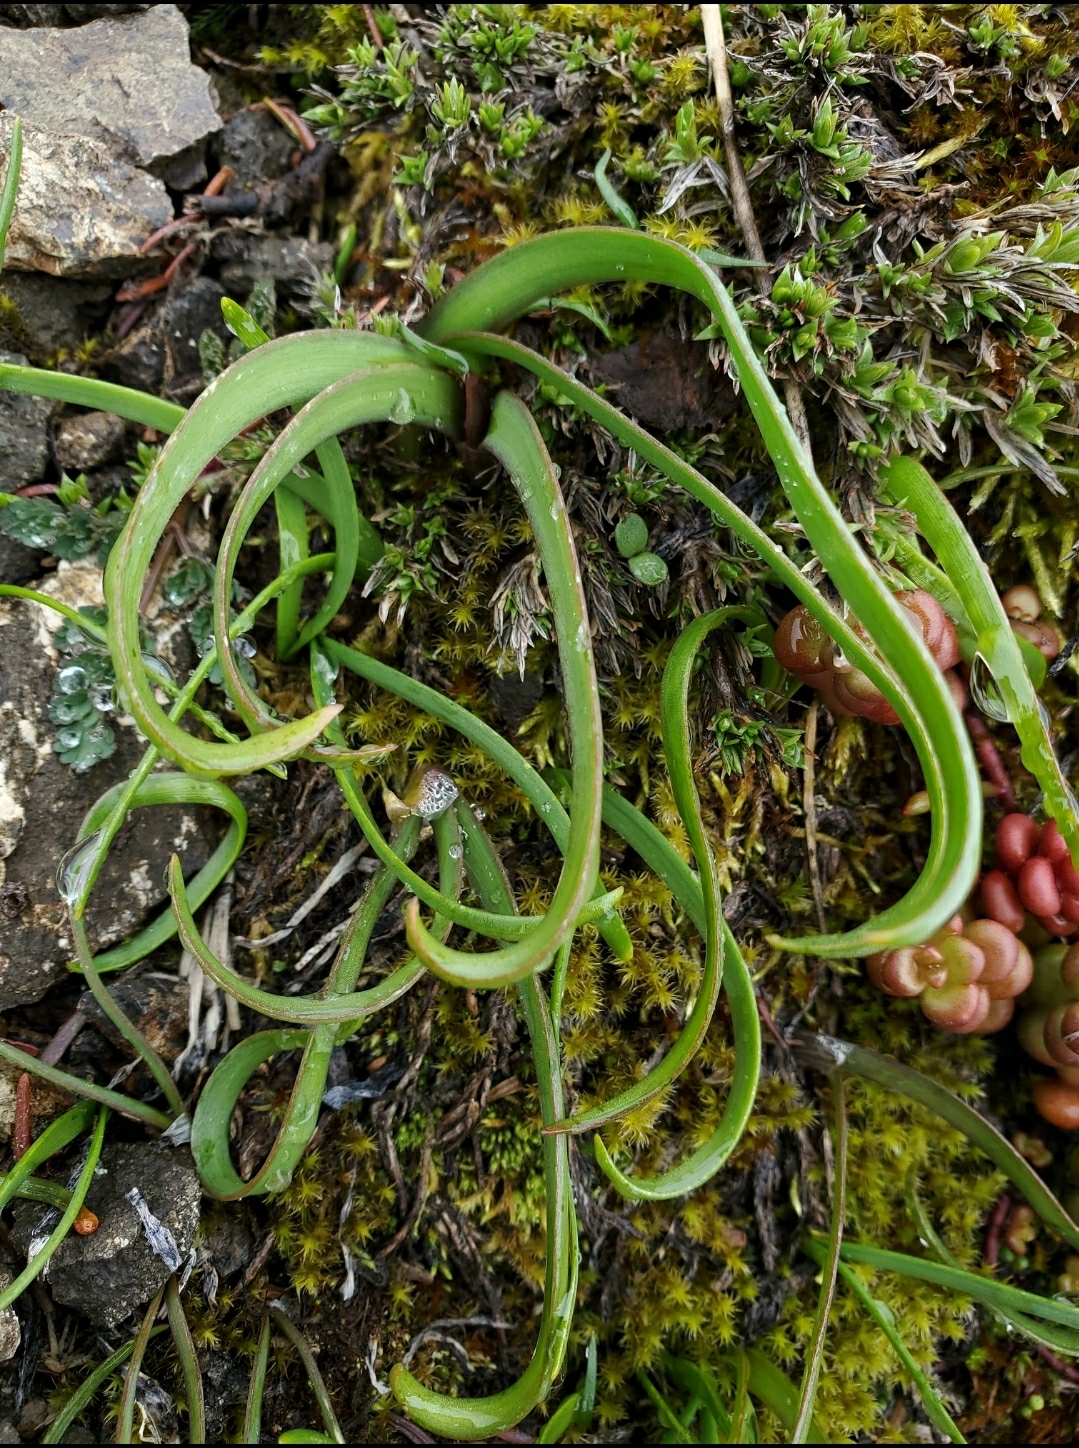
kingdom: Plantae
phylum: Tracheophyta
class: Liliopsida
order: Asparagales
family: Amaryllidaceae
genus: Allium
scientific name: Allium crenulatum
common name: Olympic onion
